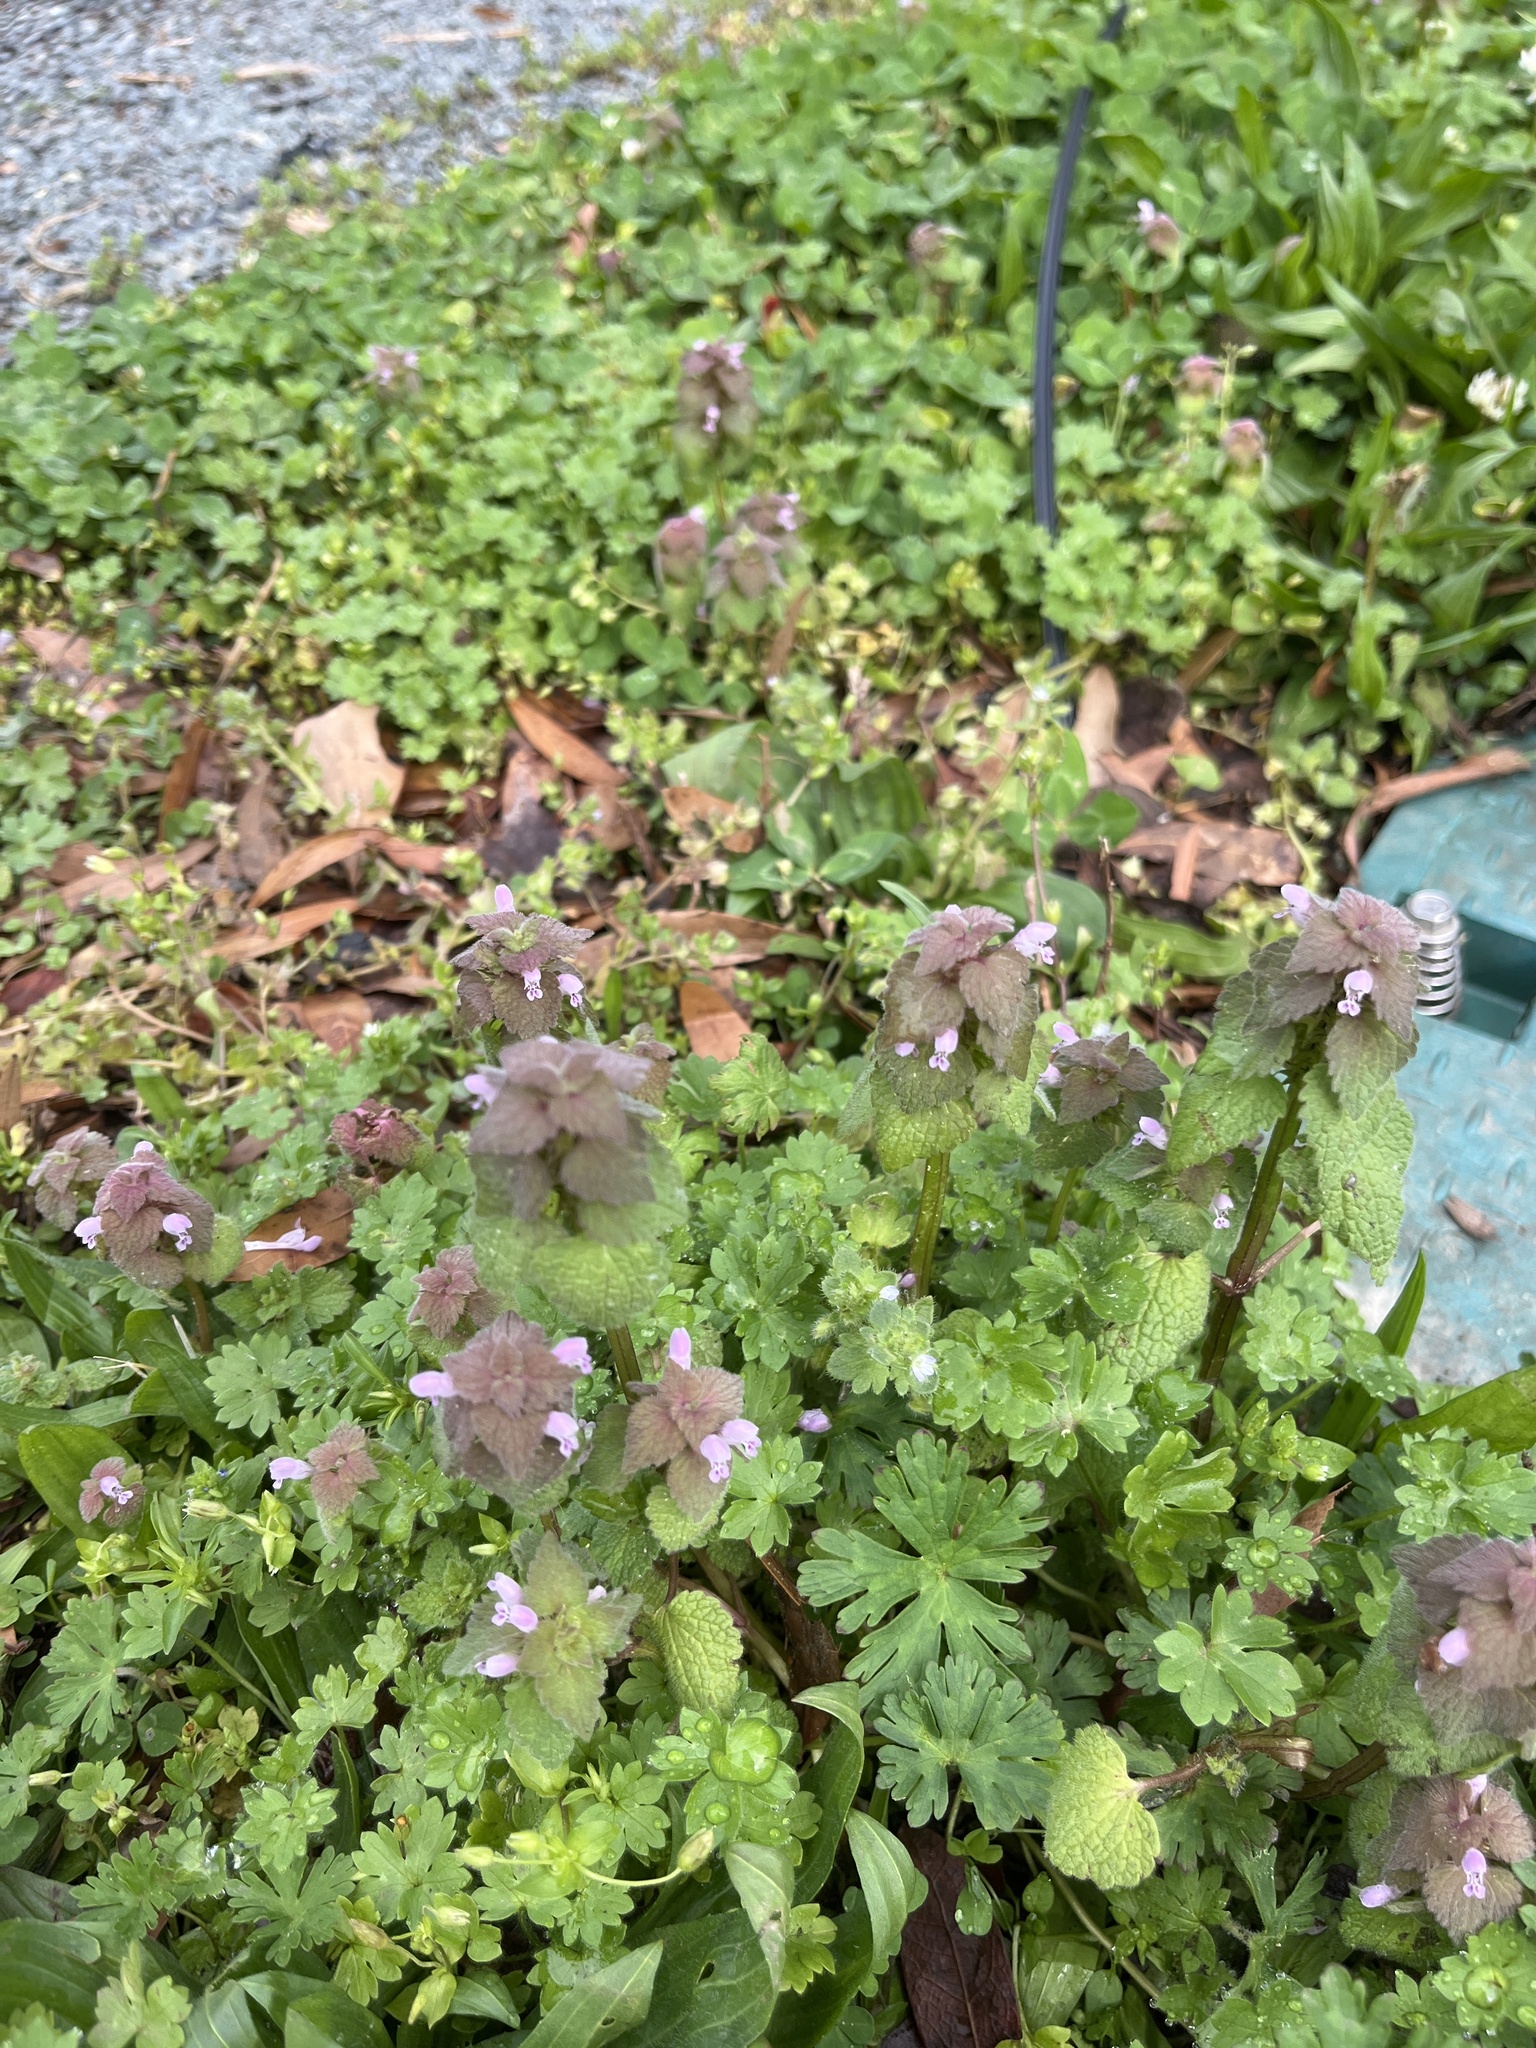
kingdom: Plantae
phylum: Tracheophyta
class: Magnoliopsida
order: Lamiales
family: Lamiaceae
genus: Lamium
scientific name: Lamium purpureum
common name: Red dead-nettle
